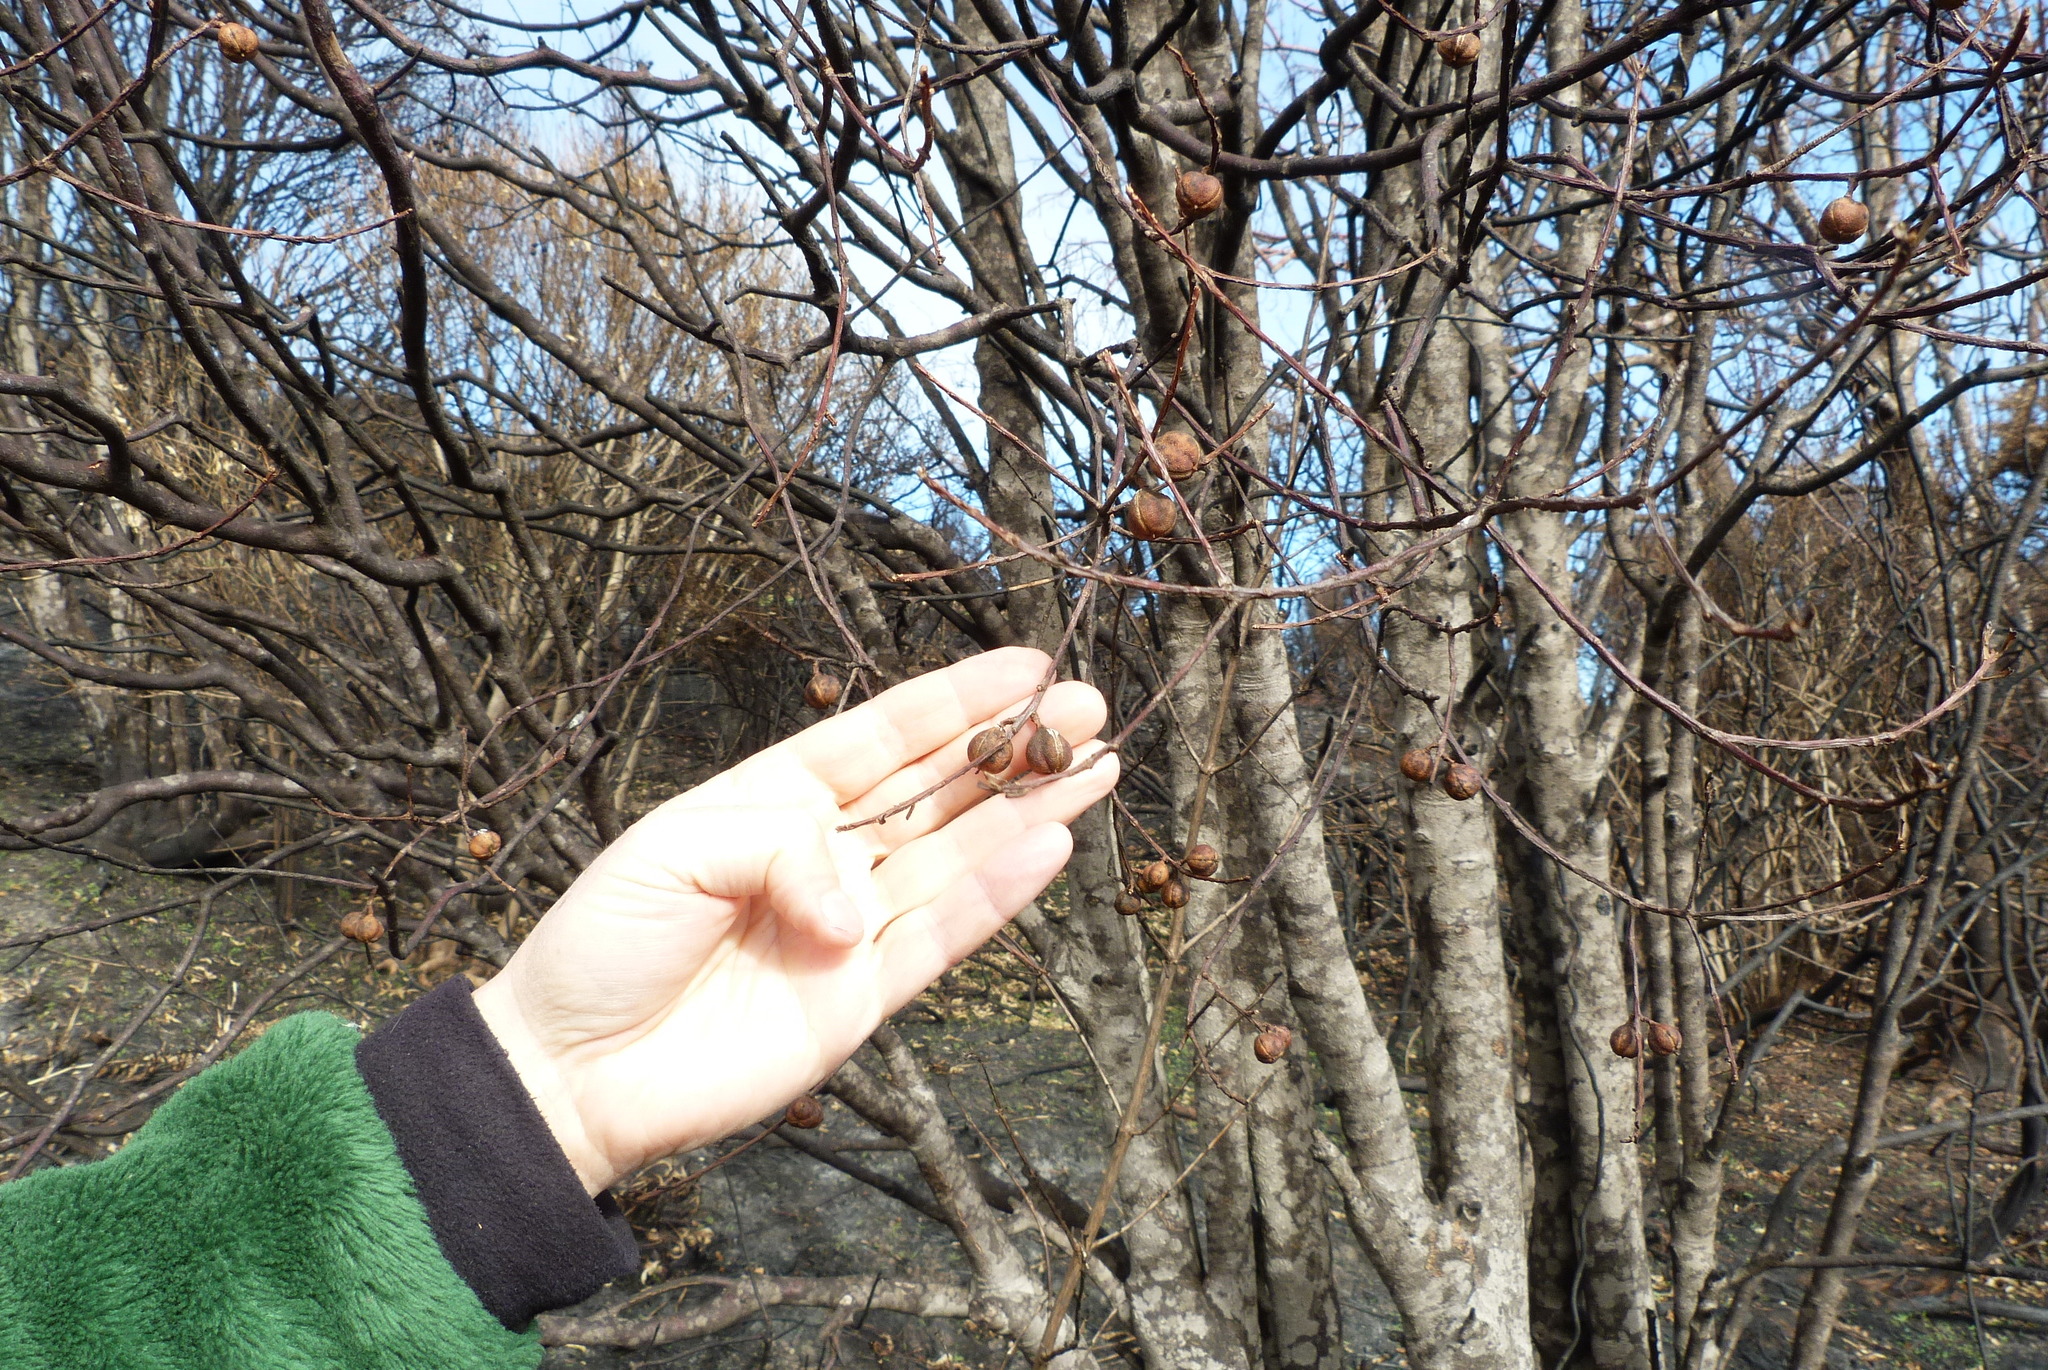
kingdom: Plantae
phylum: Tracheophyta
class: Magnoliopsida
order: Apiales
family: Pittosporaceae
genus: Pittosporum
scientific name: Pittosporum tenuifolium
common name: Kohuhu
